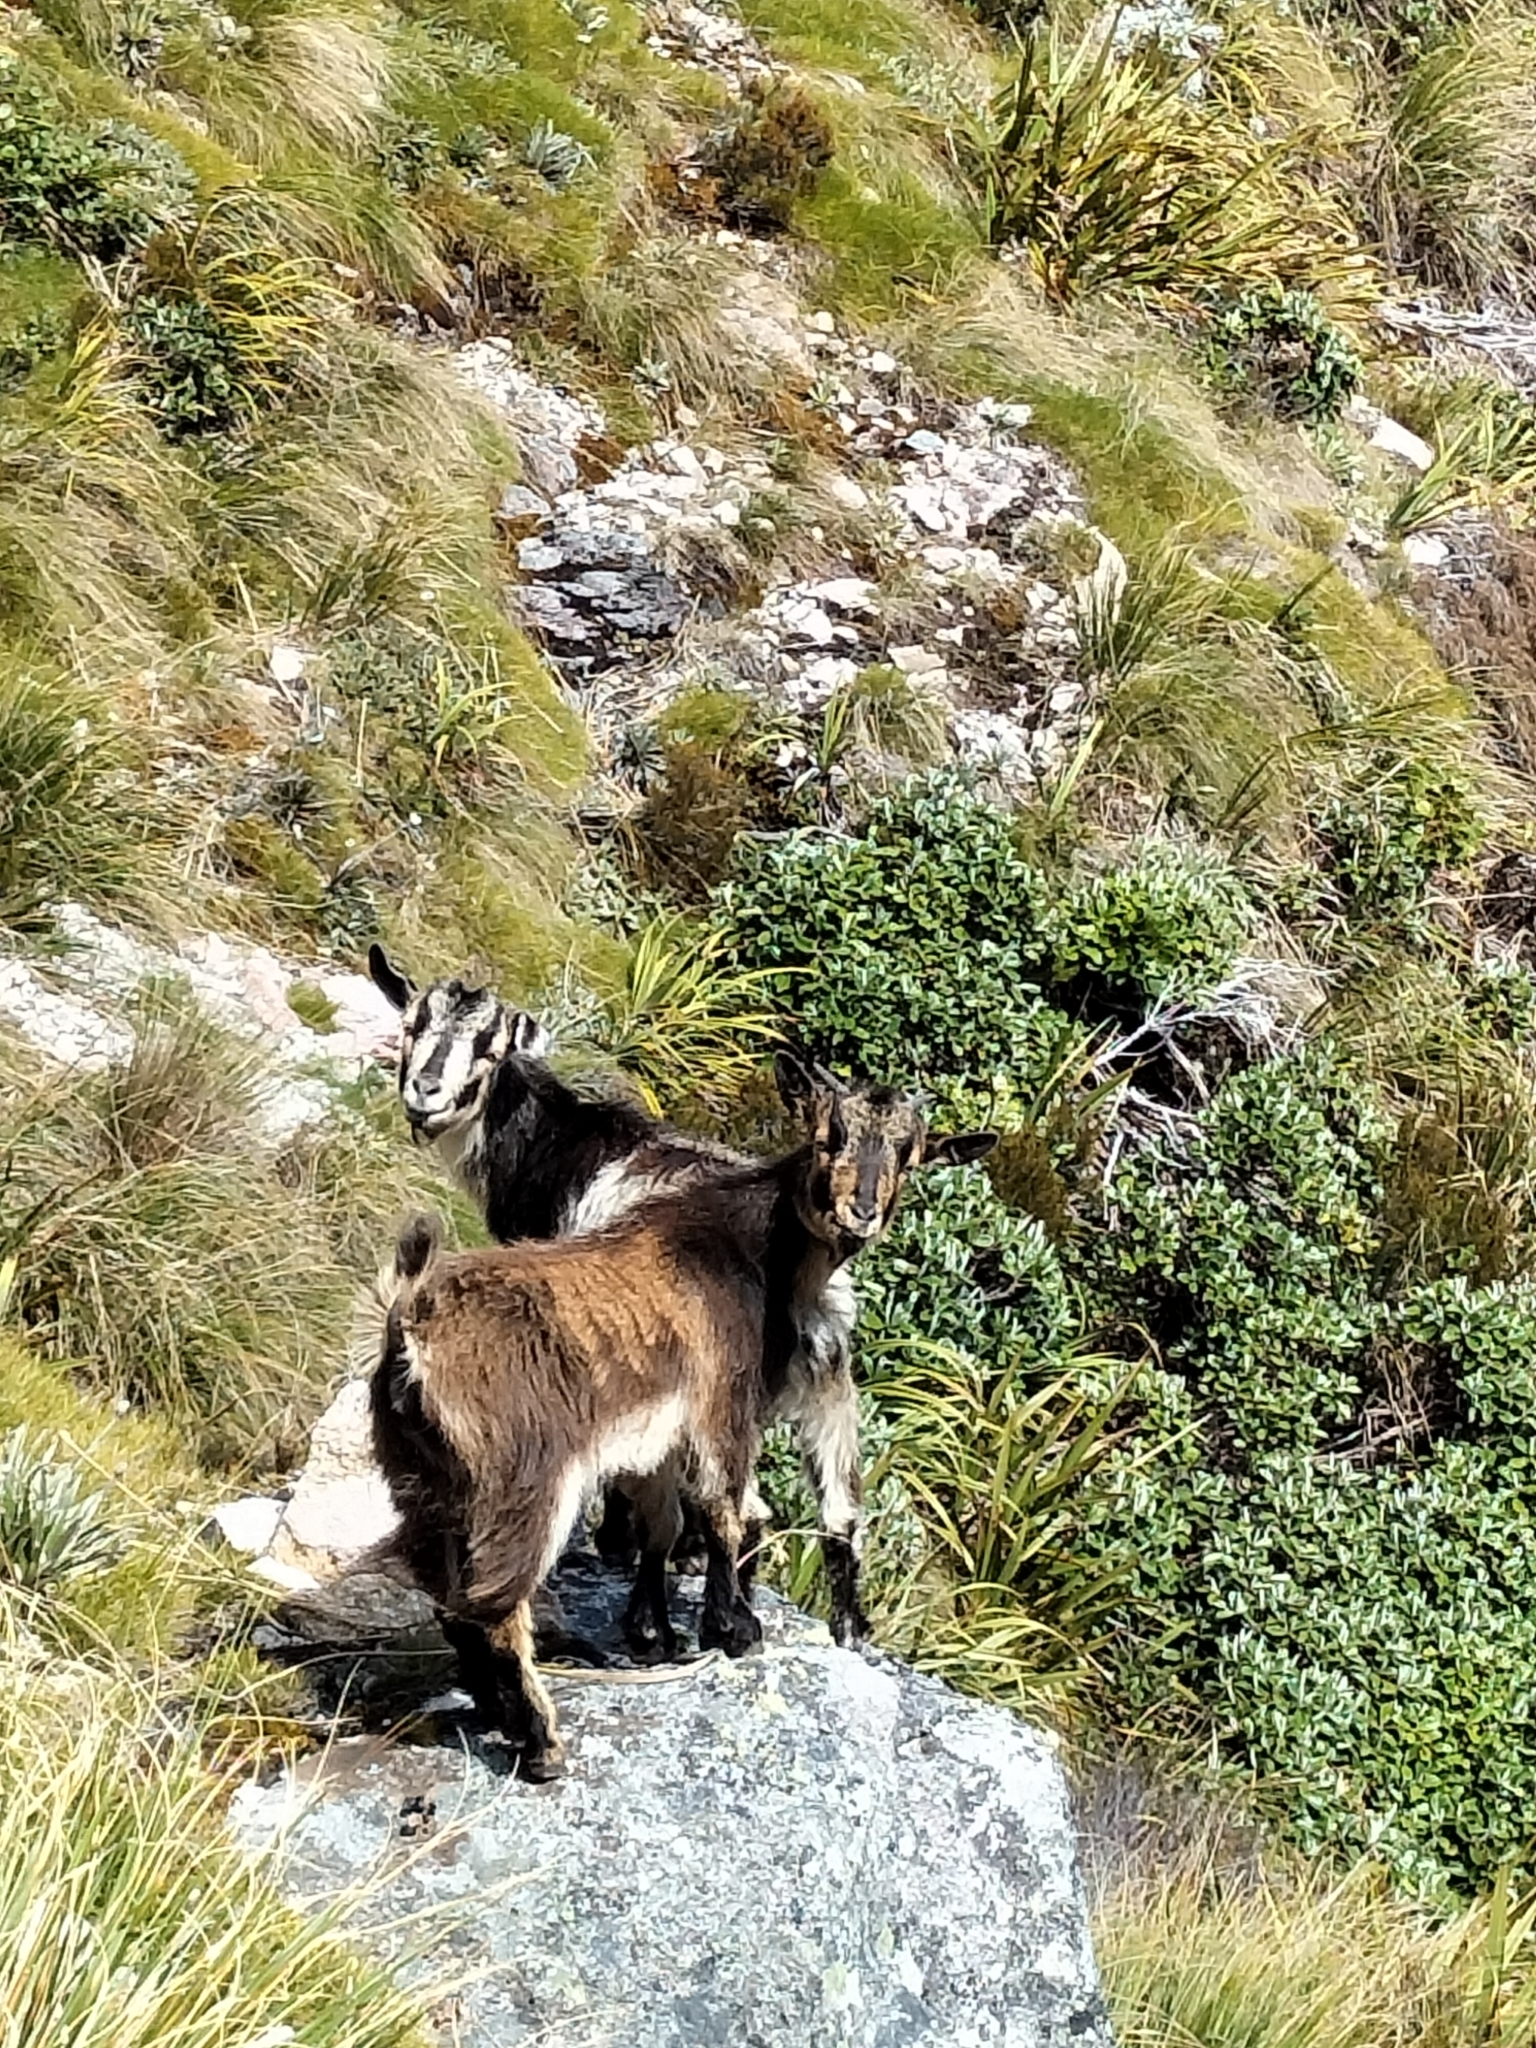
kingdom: Animalia
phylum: Chordata
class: Mammalia
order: Artiodactyla
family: Bovidae
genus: Capra
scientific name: Capra hircus
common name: Domestic goat
